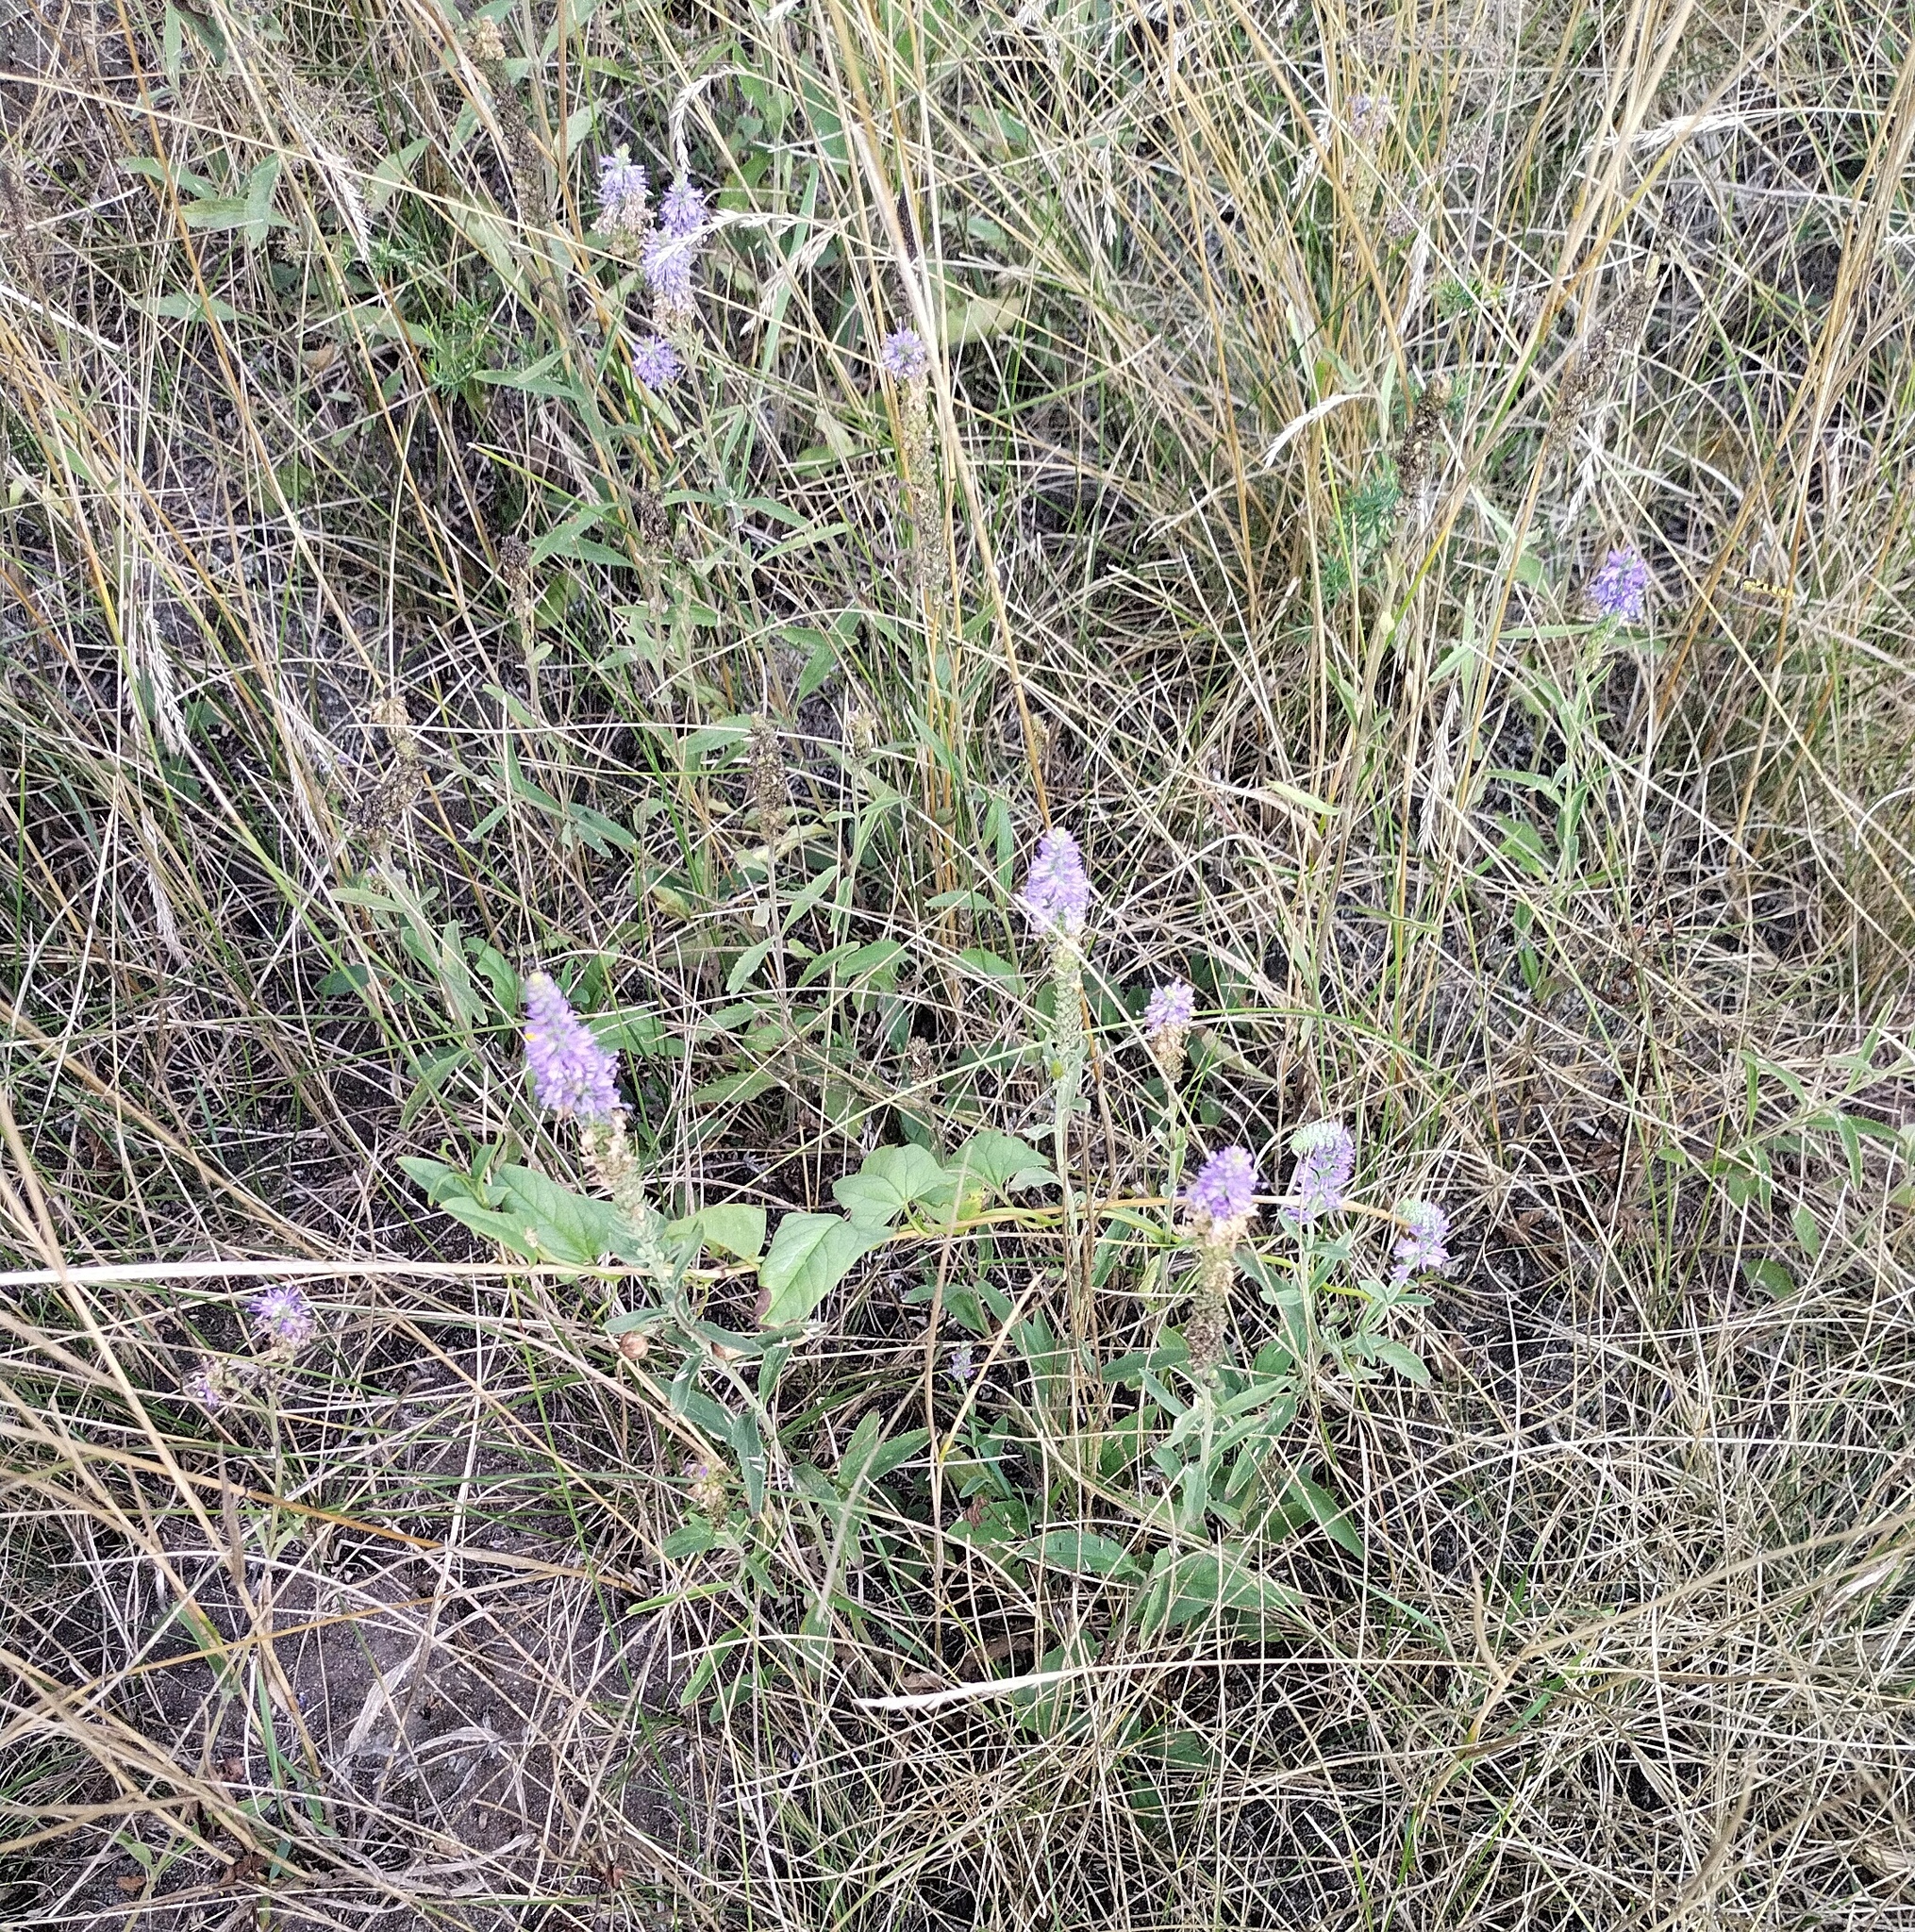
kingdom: Plantae
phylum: Tracheophyta
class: Magnoliopsida
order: Lamiales
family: Plantaginaceae
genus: Veronica
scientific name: Veronica spicata
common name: Spiked speedwell
